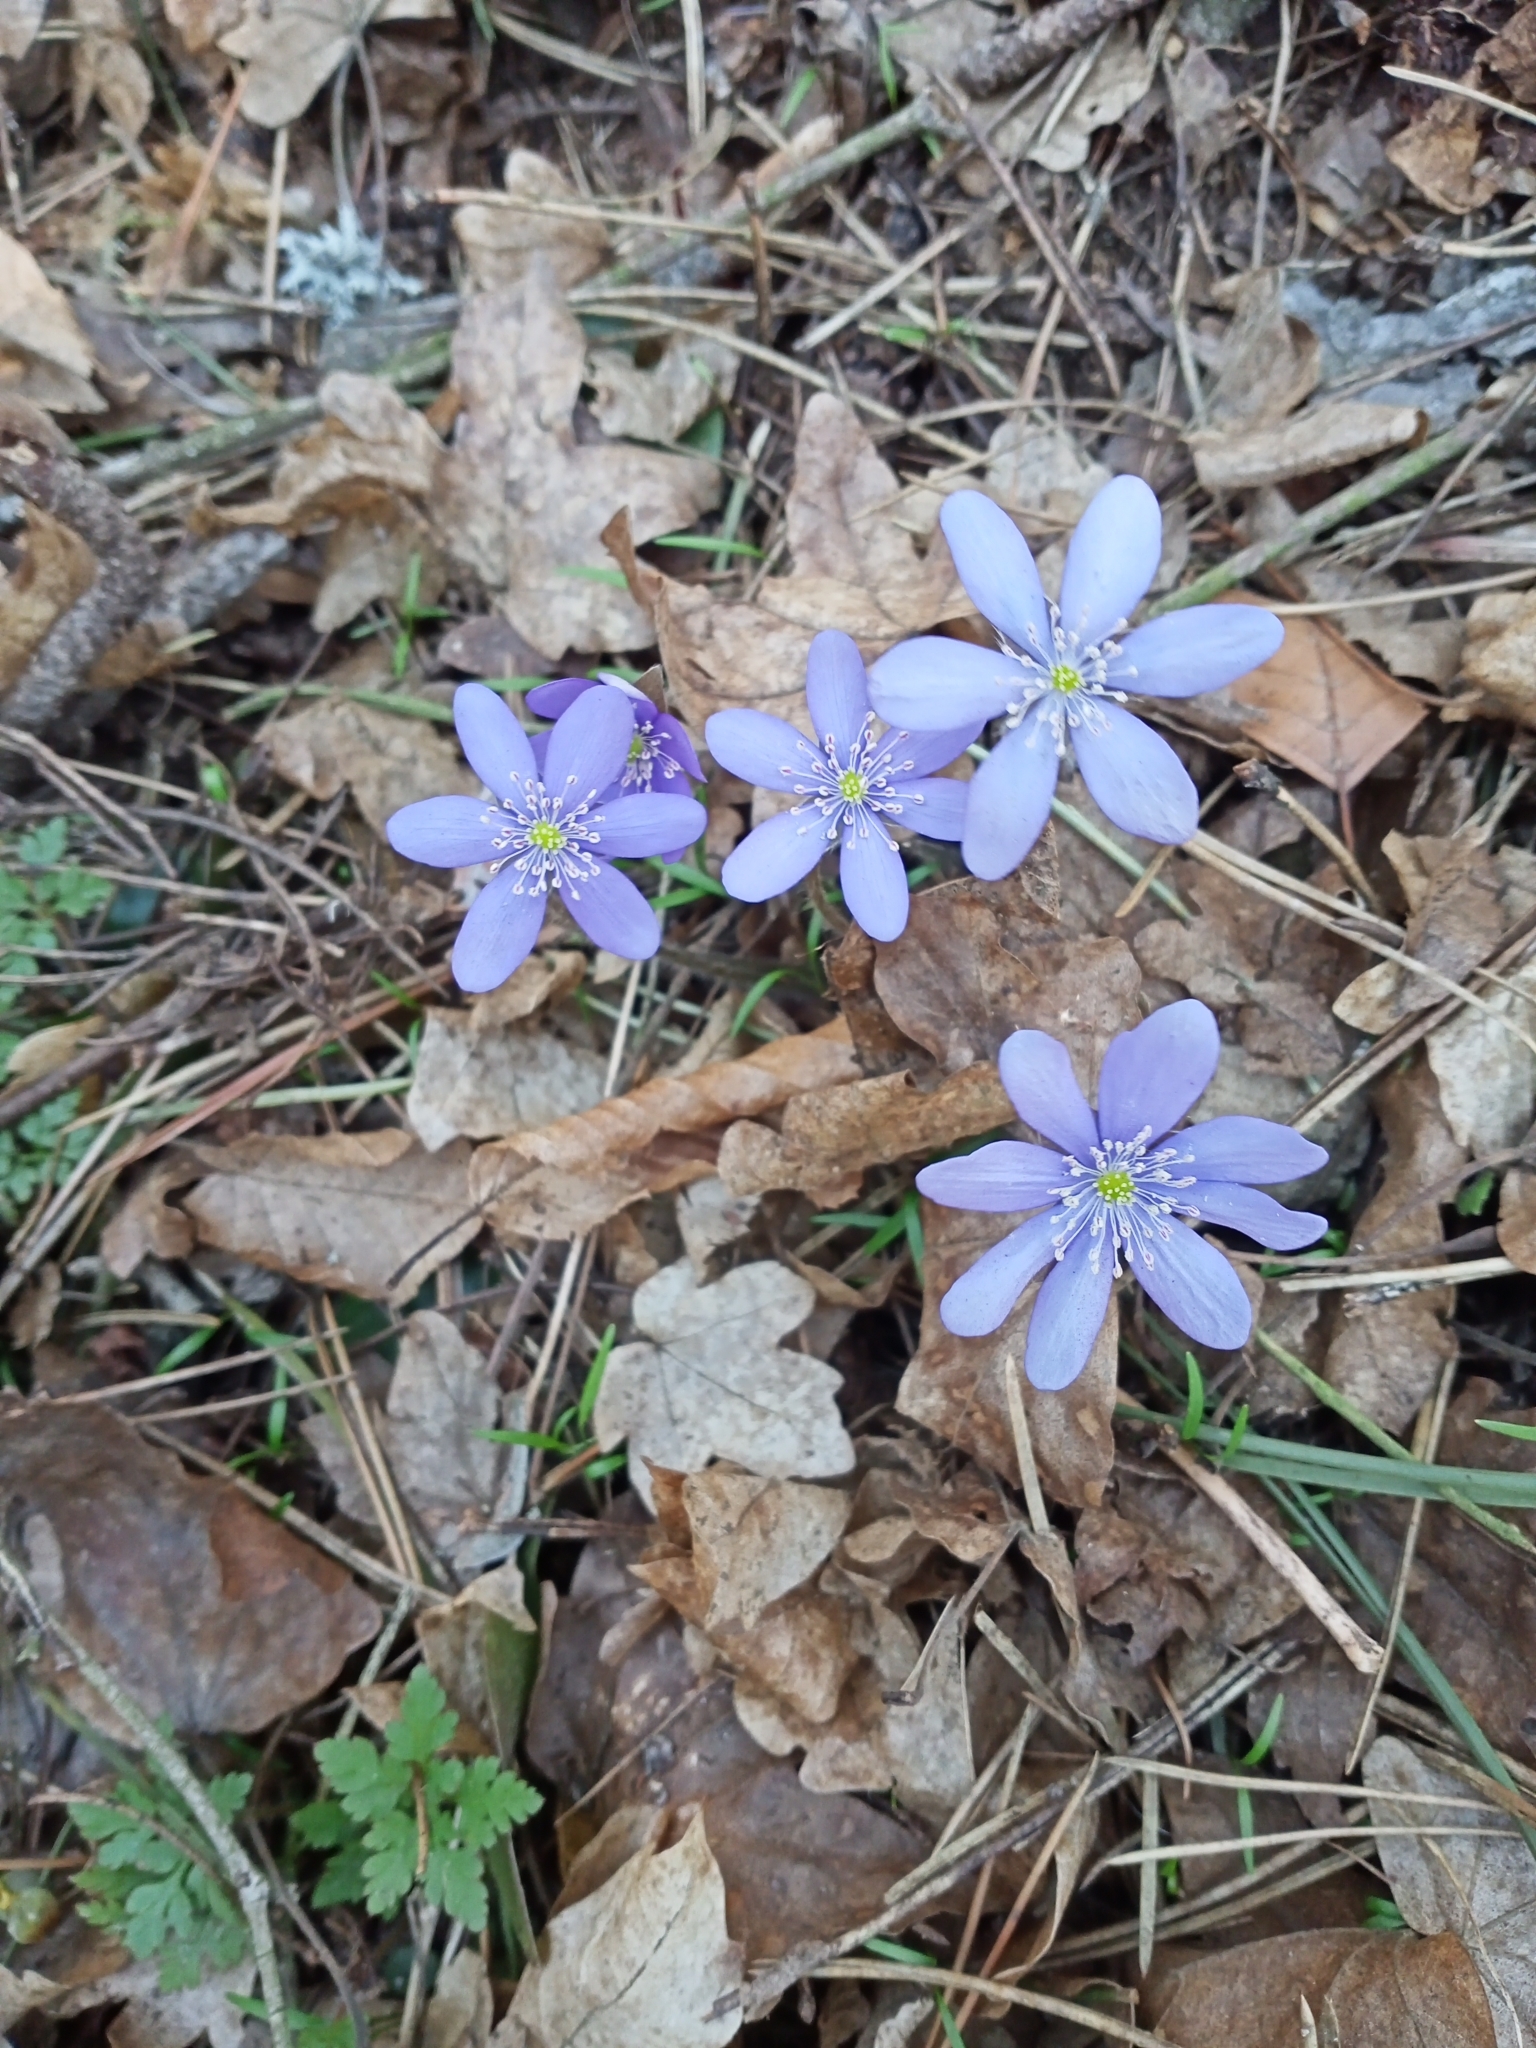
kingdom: Plantae
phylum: Tracheophyta
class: Magnoliopsida
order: Ranunculales
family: Ranunculaceae
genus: Hepatica
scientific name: Hepatica nobilis
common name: Liverleaf
